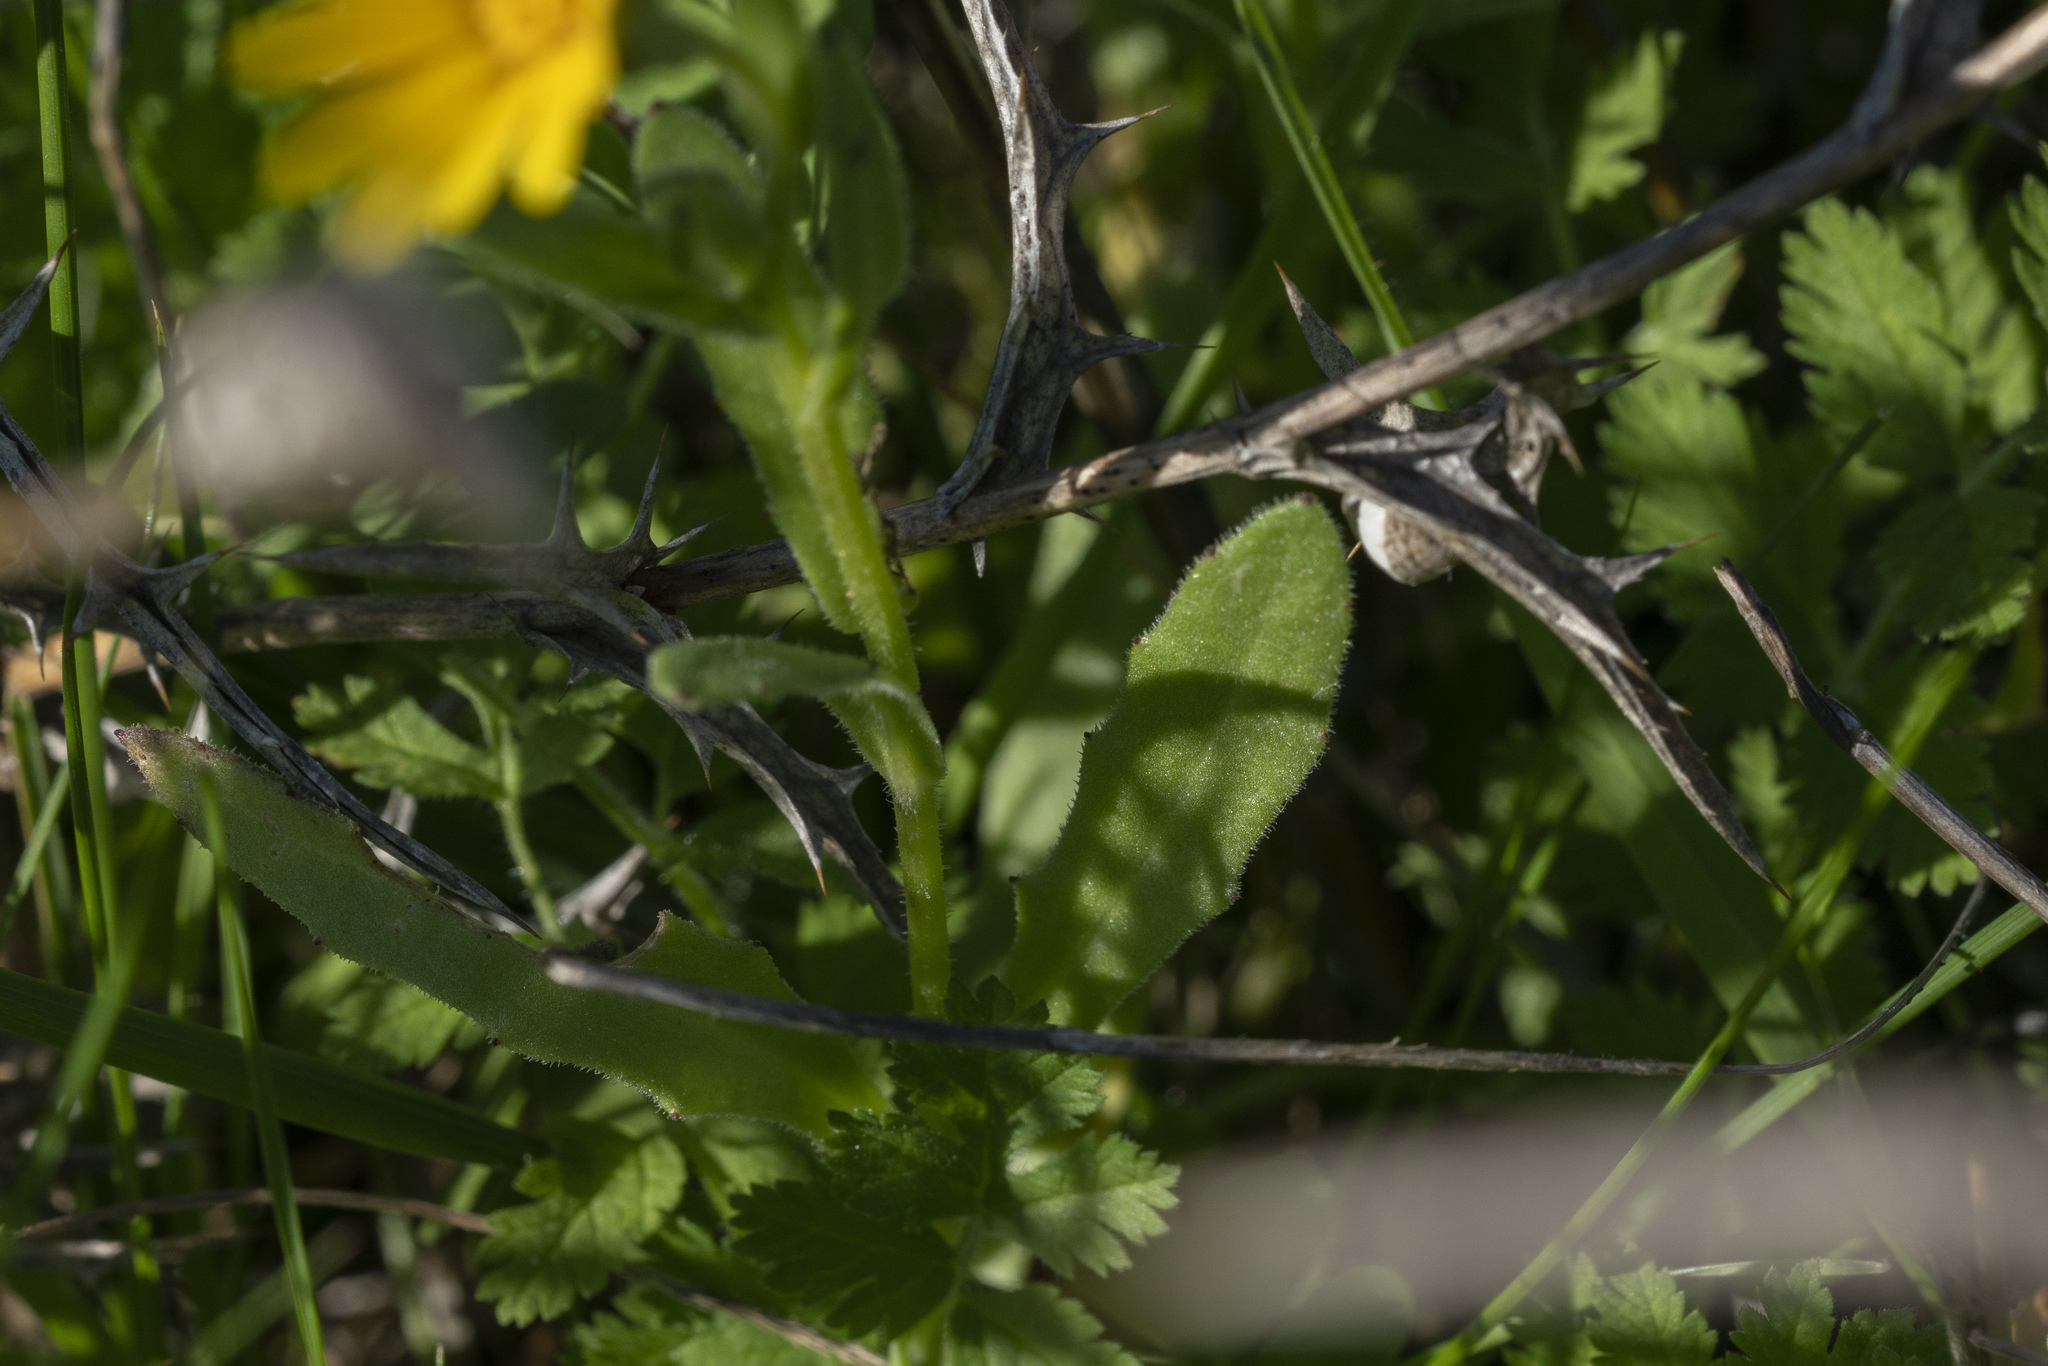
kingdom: Plantae
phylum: Tracheophyta
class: Magnoliopsida
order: Asterales
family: Asteraceae
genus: Calendula
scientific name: Calendula arvensis
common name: Field marigold
